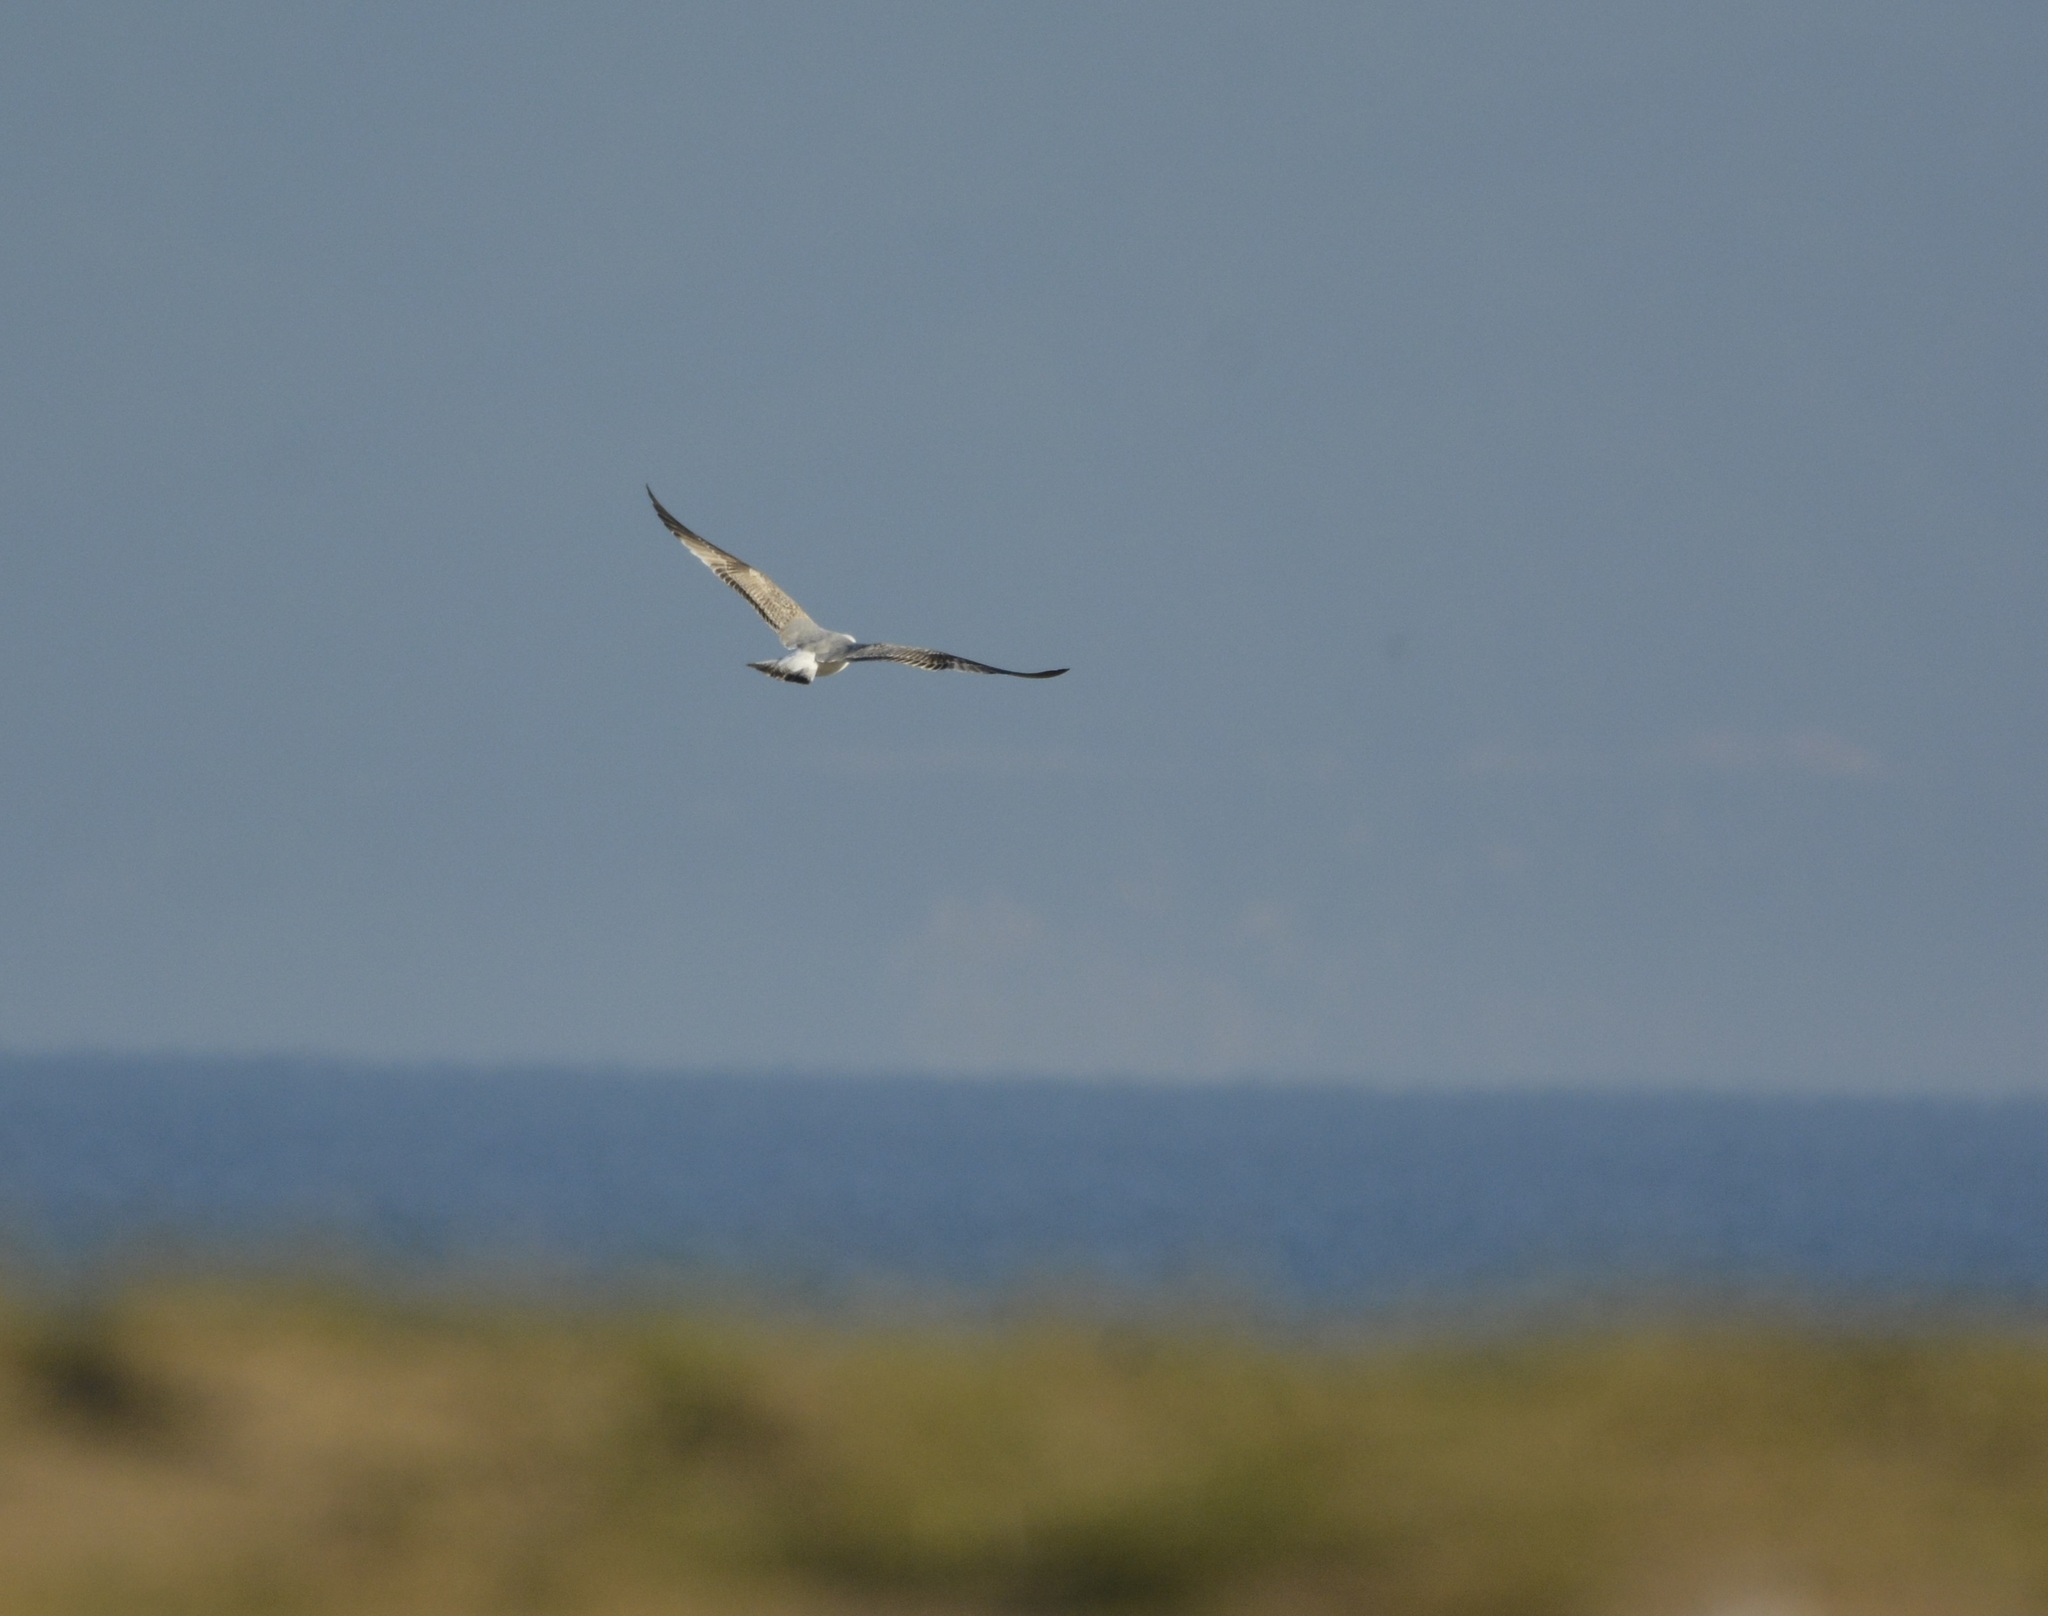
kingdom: Animalia
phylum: Chordata
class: Aves
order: Charadriiformes
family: Laridae
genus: Larus
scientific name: Larus michahellis
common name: Yellow-legged gull
